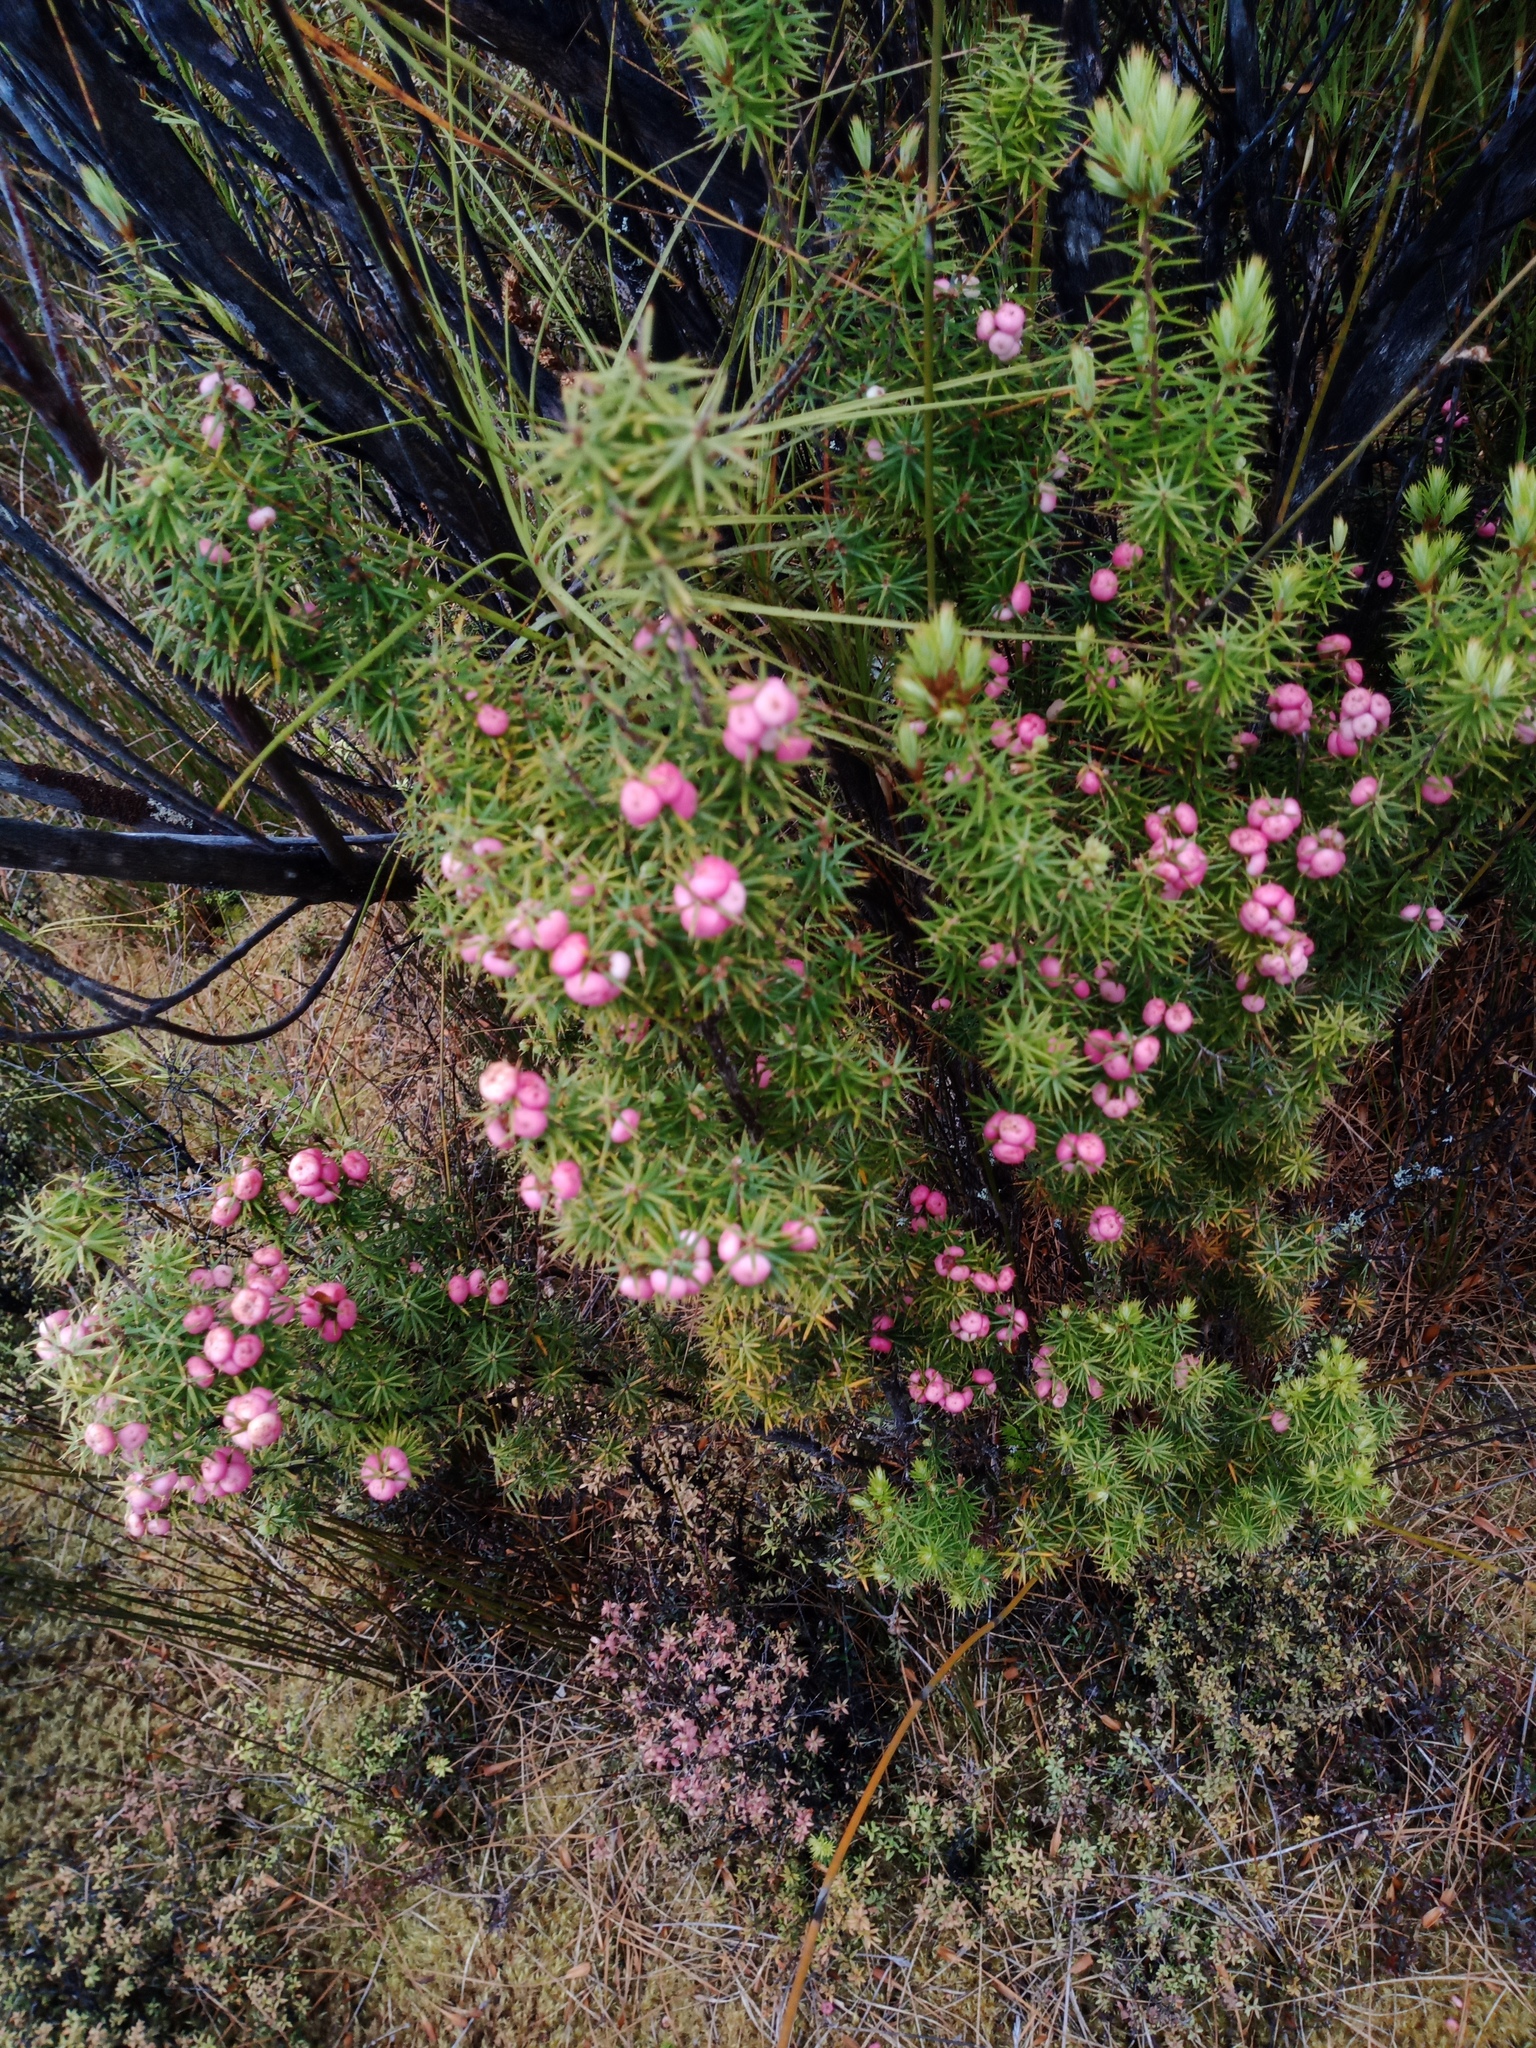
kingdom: Plantae
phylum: Tracheophyta
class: Magnoliopsida
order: Ericales
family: Ericaceae
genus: Leptecophylla
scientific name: Leptecophylla juniperina
